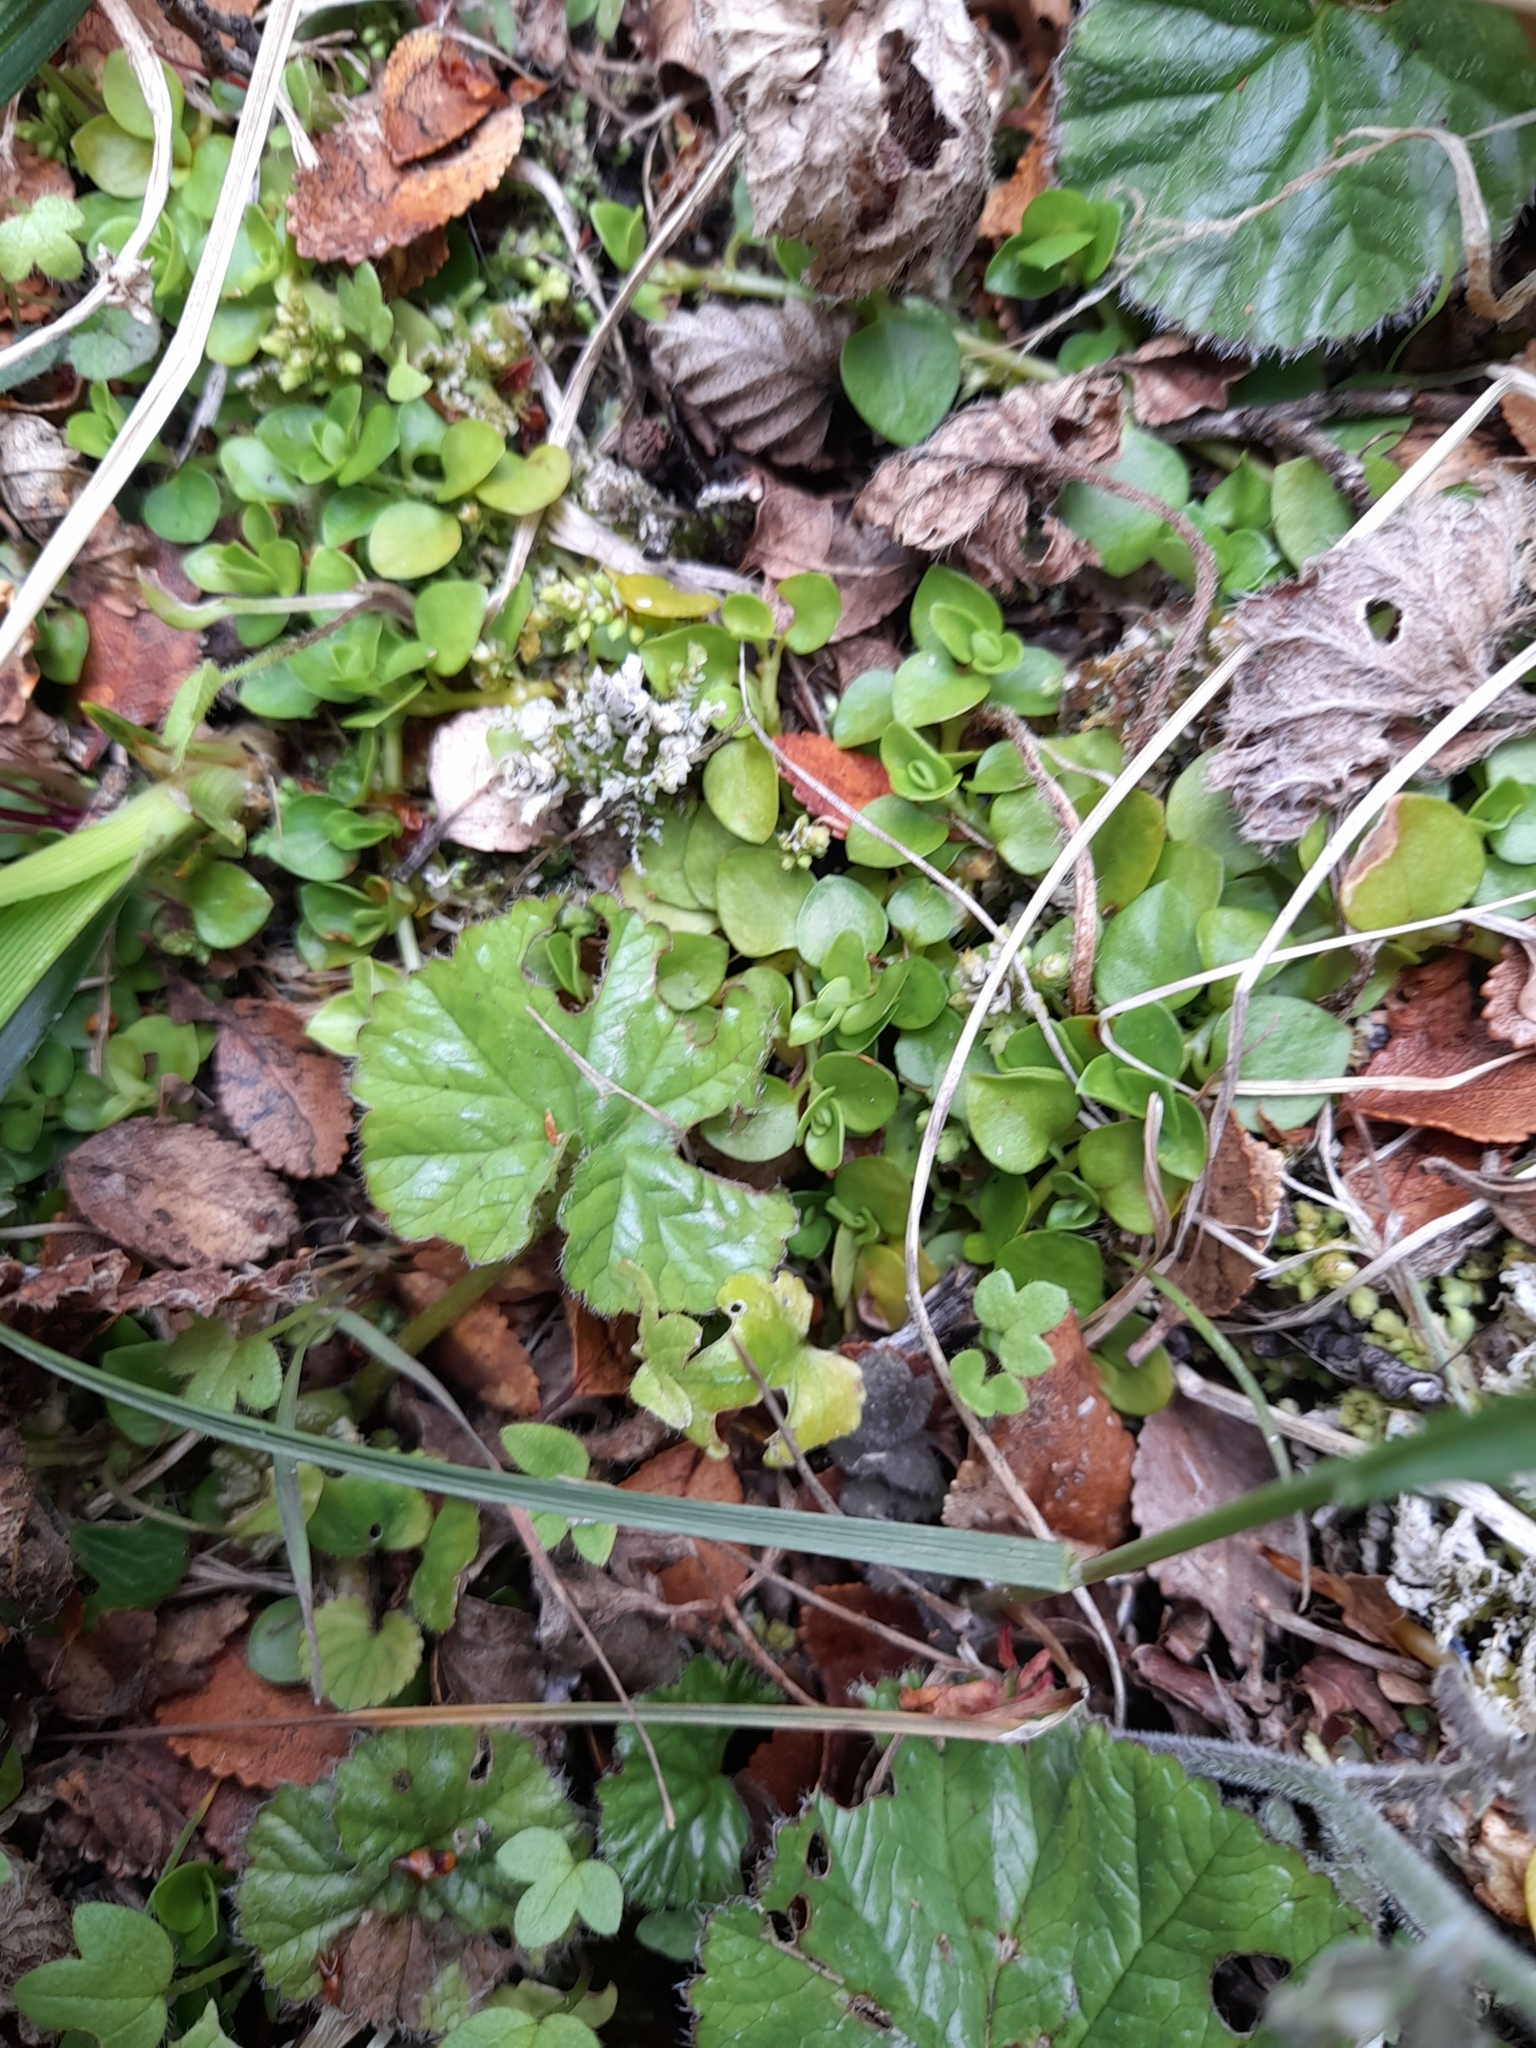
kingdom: Plantae
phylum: Tracheophyta
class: Magnoliopsida
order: Gentianales
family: Rubiaceae
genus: Nertera
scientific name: Nertera granadensis
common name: Beadplant
